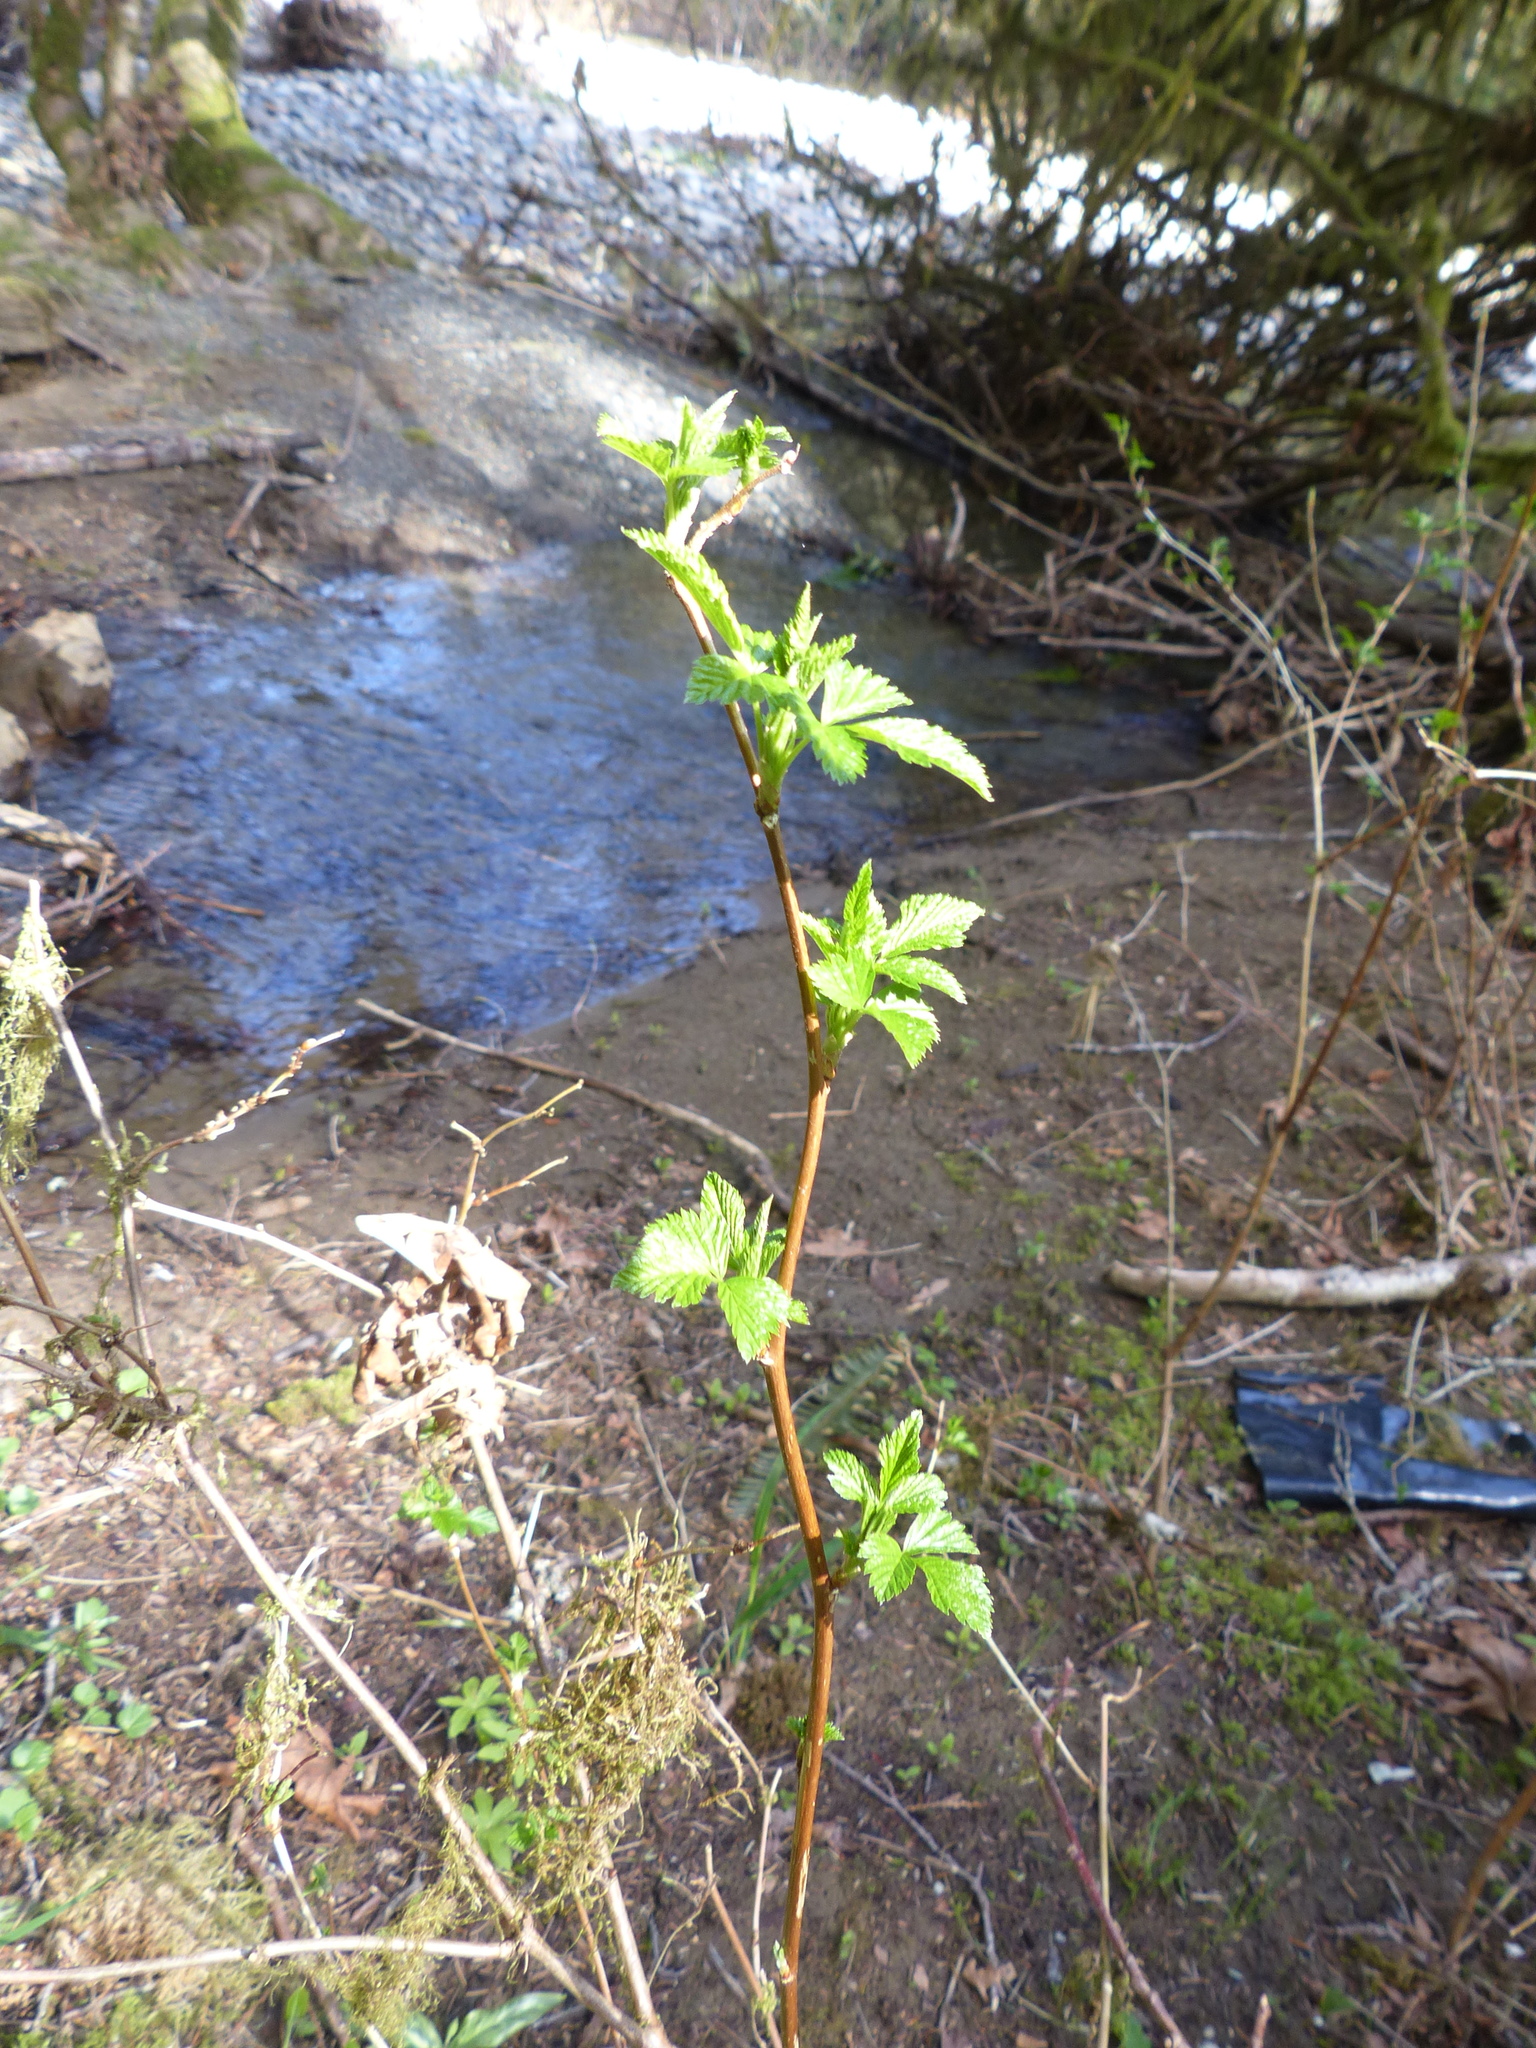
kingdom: Plantae
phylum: Tracheophyta
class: Magnoliopsida
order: Rosales
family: Rosaceae
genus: Rubus
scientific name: Rubus spectabilis
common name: Salmonberry
